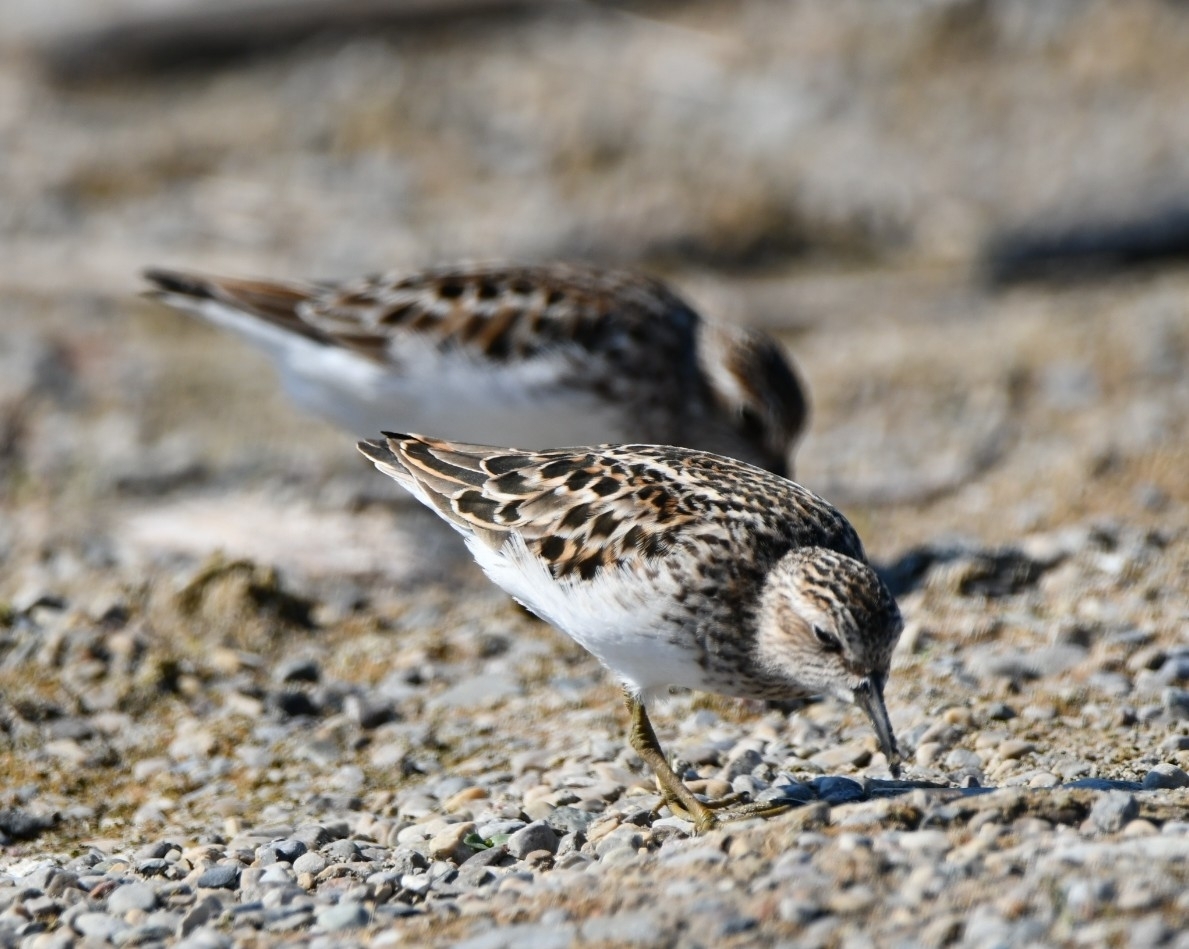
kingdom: Animalia
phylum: Chordata
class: Aves
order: Charadriiformes
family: Scolopacidae
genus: Calidris
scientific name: Calidris minutilla
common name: Least sandpiper
